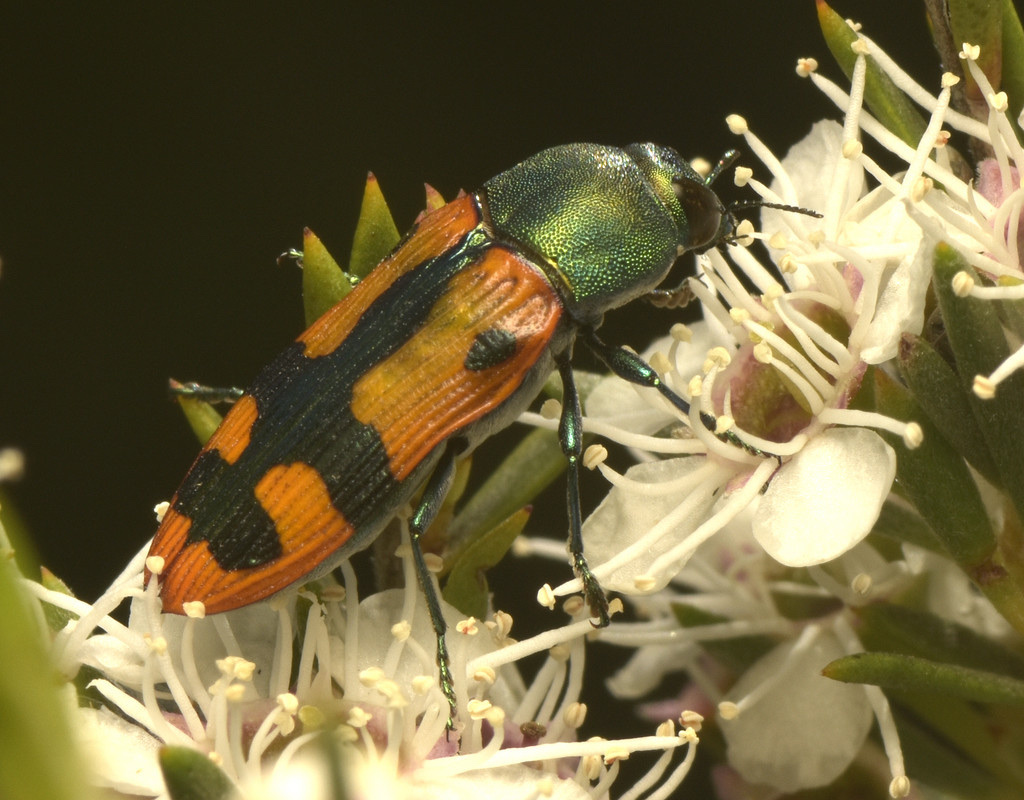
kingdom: Animalia
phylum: Arthropoda
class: Insecta
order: Coleoptera
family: Buprestidae
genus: Castiarina
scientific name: Castiarina scalaris
